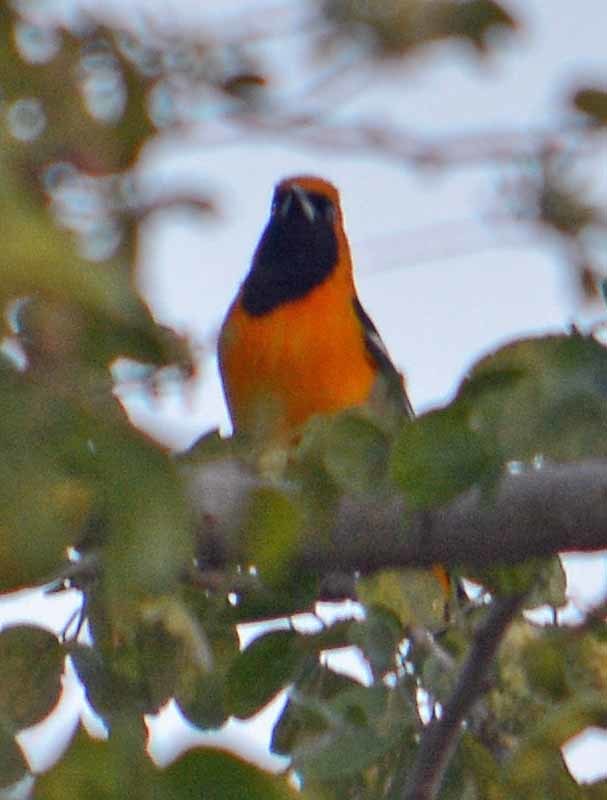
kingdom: Animalia
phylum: Chordata
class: Aves
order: Passeriformes
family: Icteridae
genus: Icterus
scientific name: Icterus cucullatus
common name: Hooded oriole
